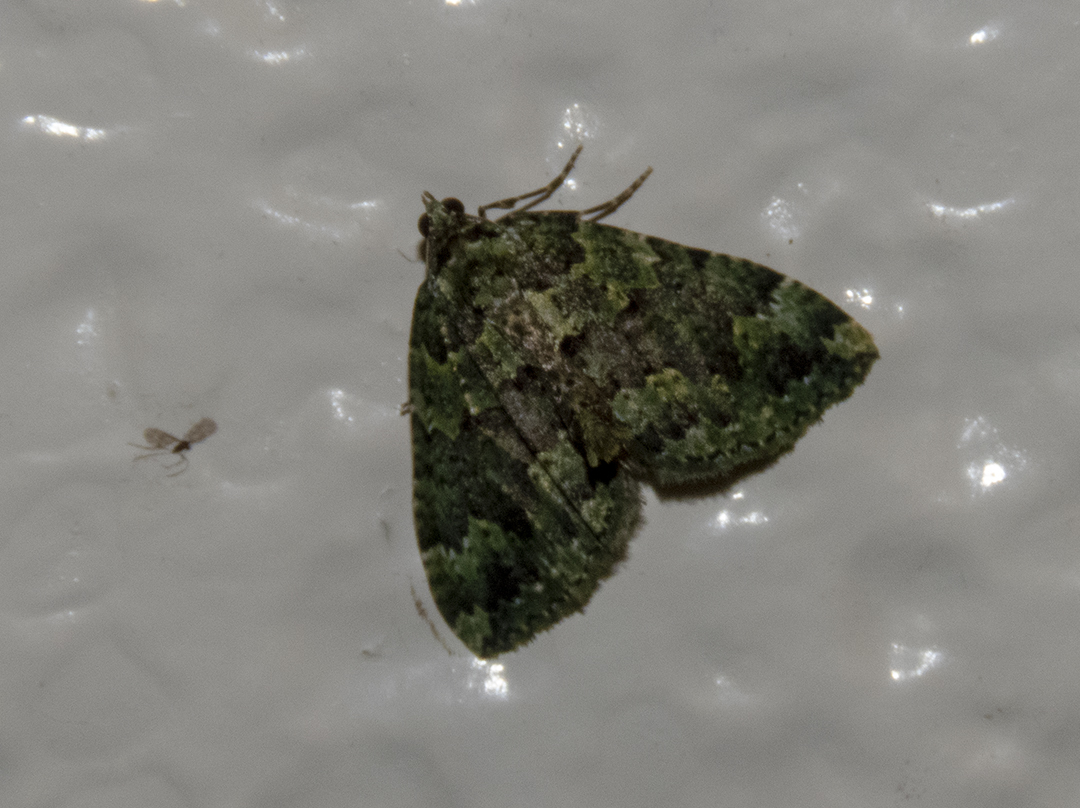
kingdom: Animalia
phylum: Arthropoda
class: Insecta
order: Lepidoptera
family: Geometridae
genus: Austrocidaria
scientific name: Austrocidaria callichlora
